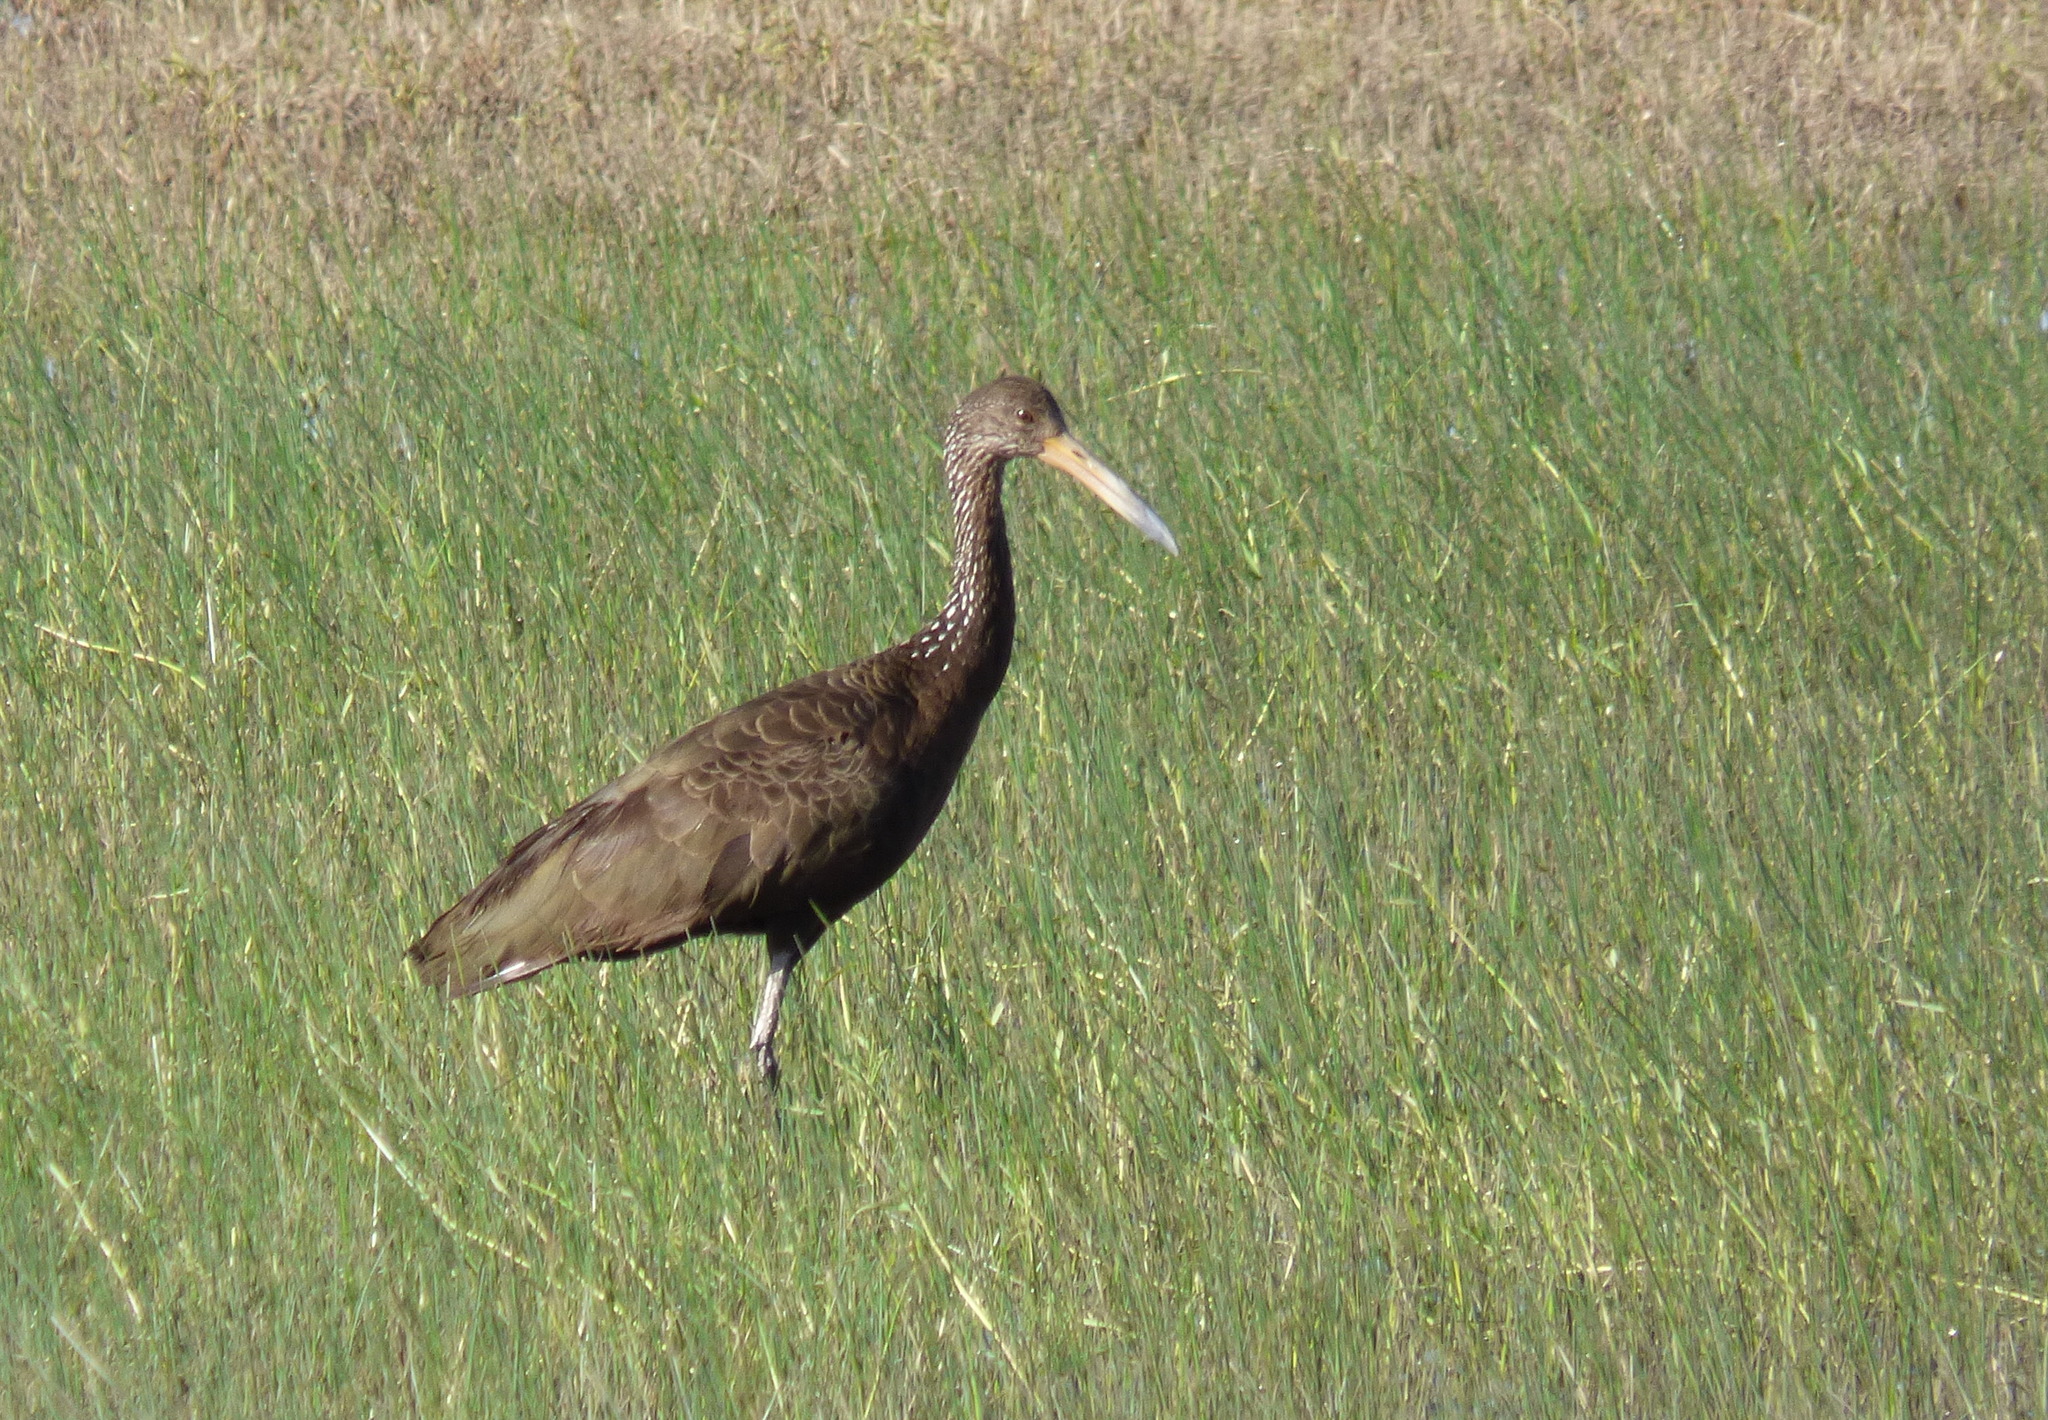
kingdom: Animalia
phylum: Chordata
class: Aves
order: Gruiformes
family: Aramidae
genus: Aramus
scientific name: Aramus guarauna
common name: Limpkin
